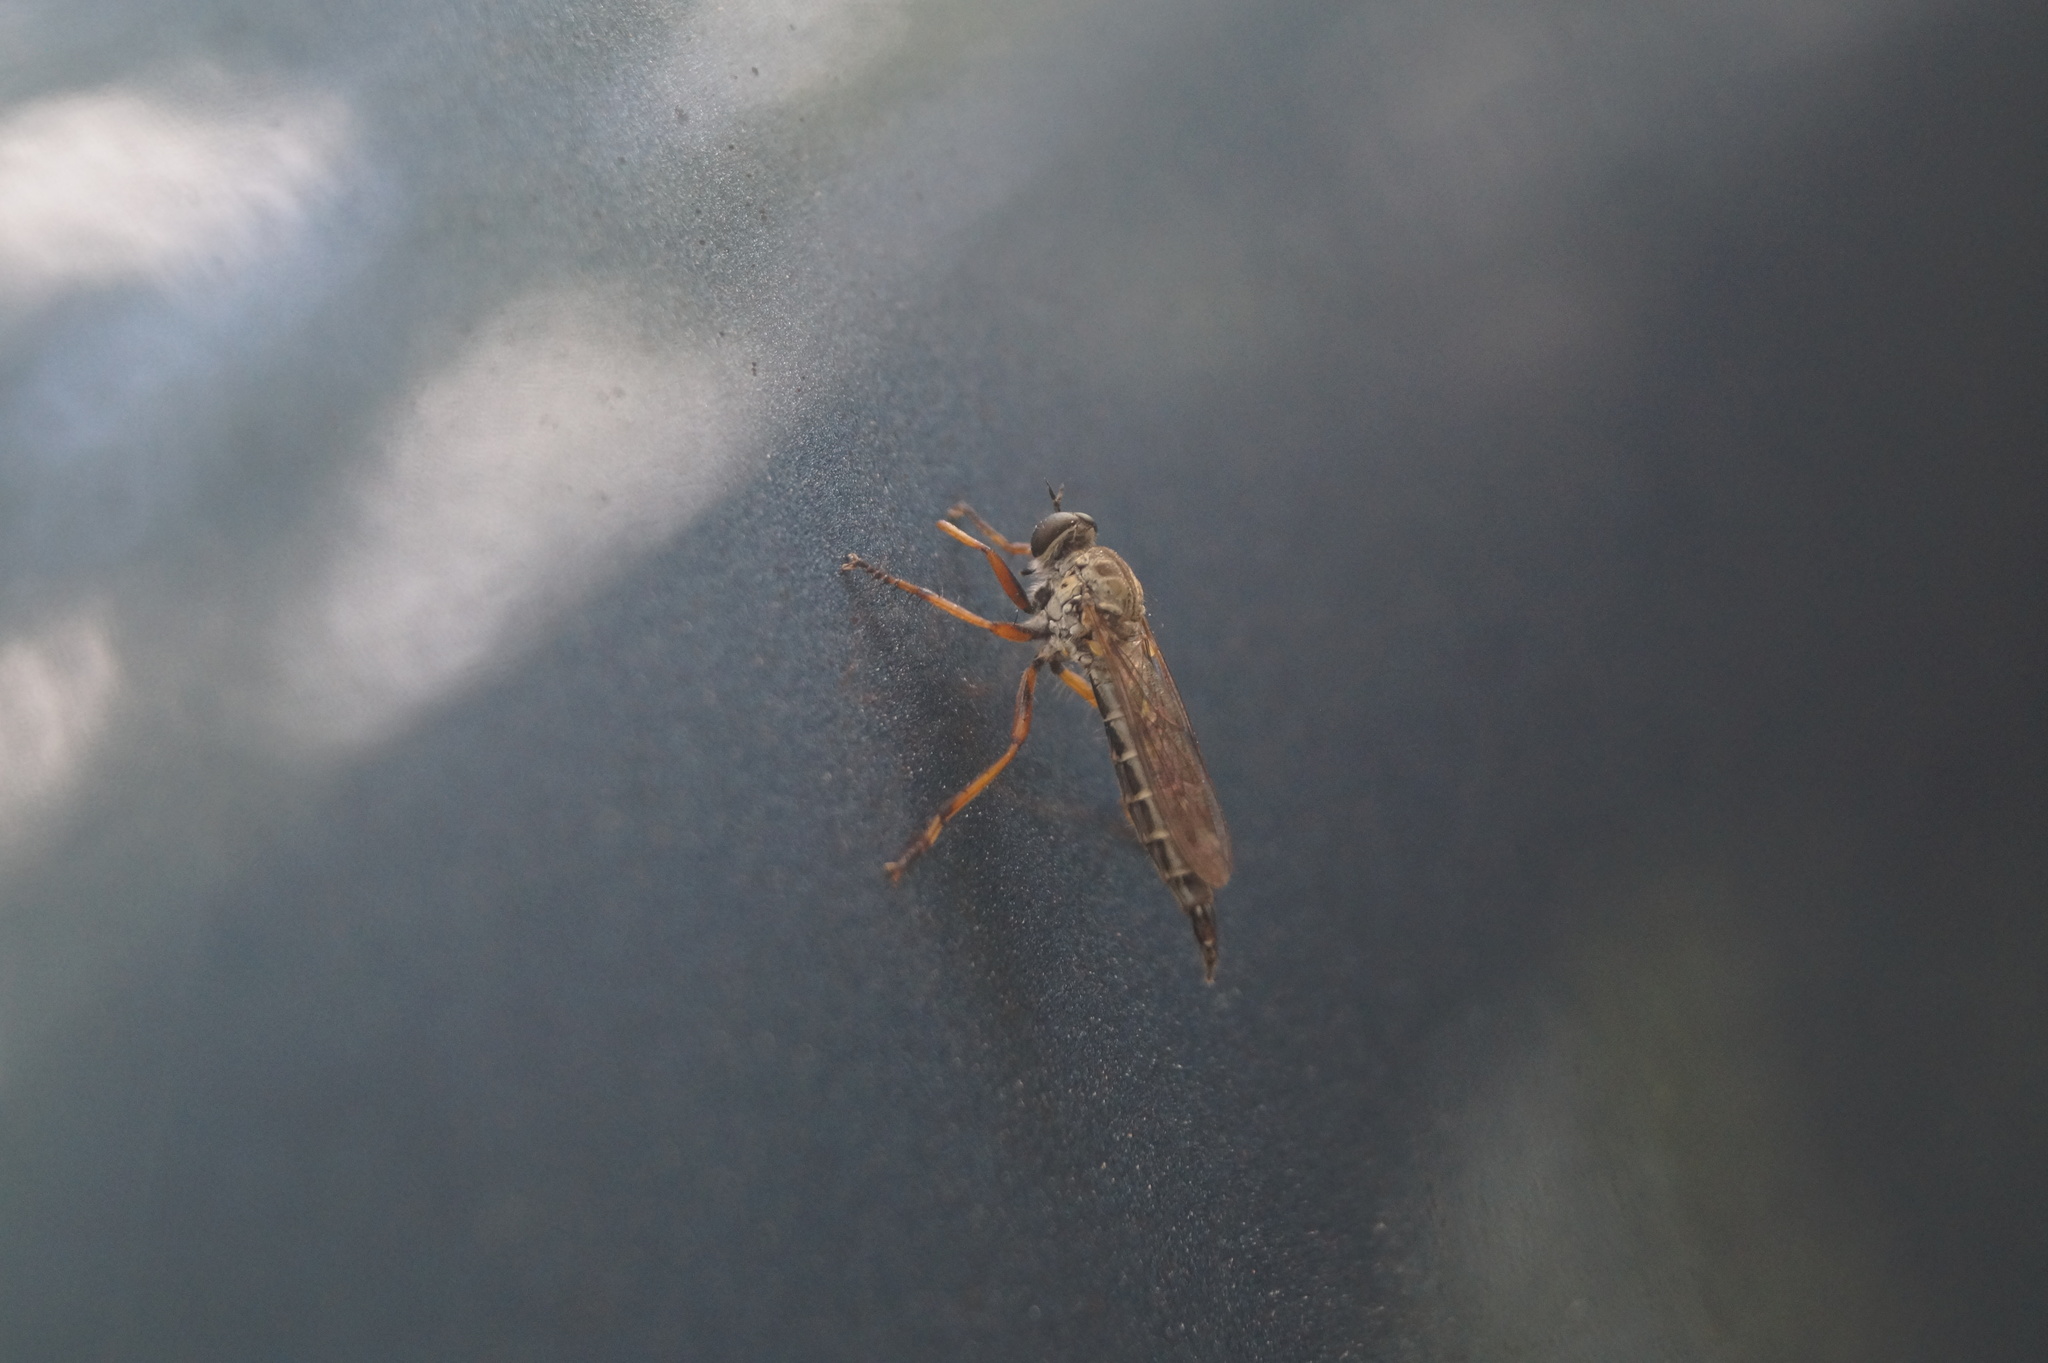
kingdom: Animalia
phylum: Arthropoda
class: Insecta
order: Diptera
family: Asilidae
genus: Neomochtherus
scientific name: Neomochtherus pallipes
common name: Devon red-legged robberfly
